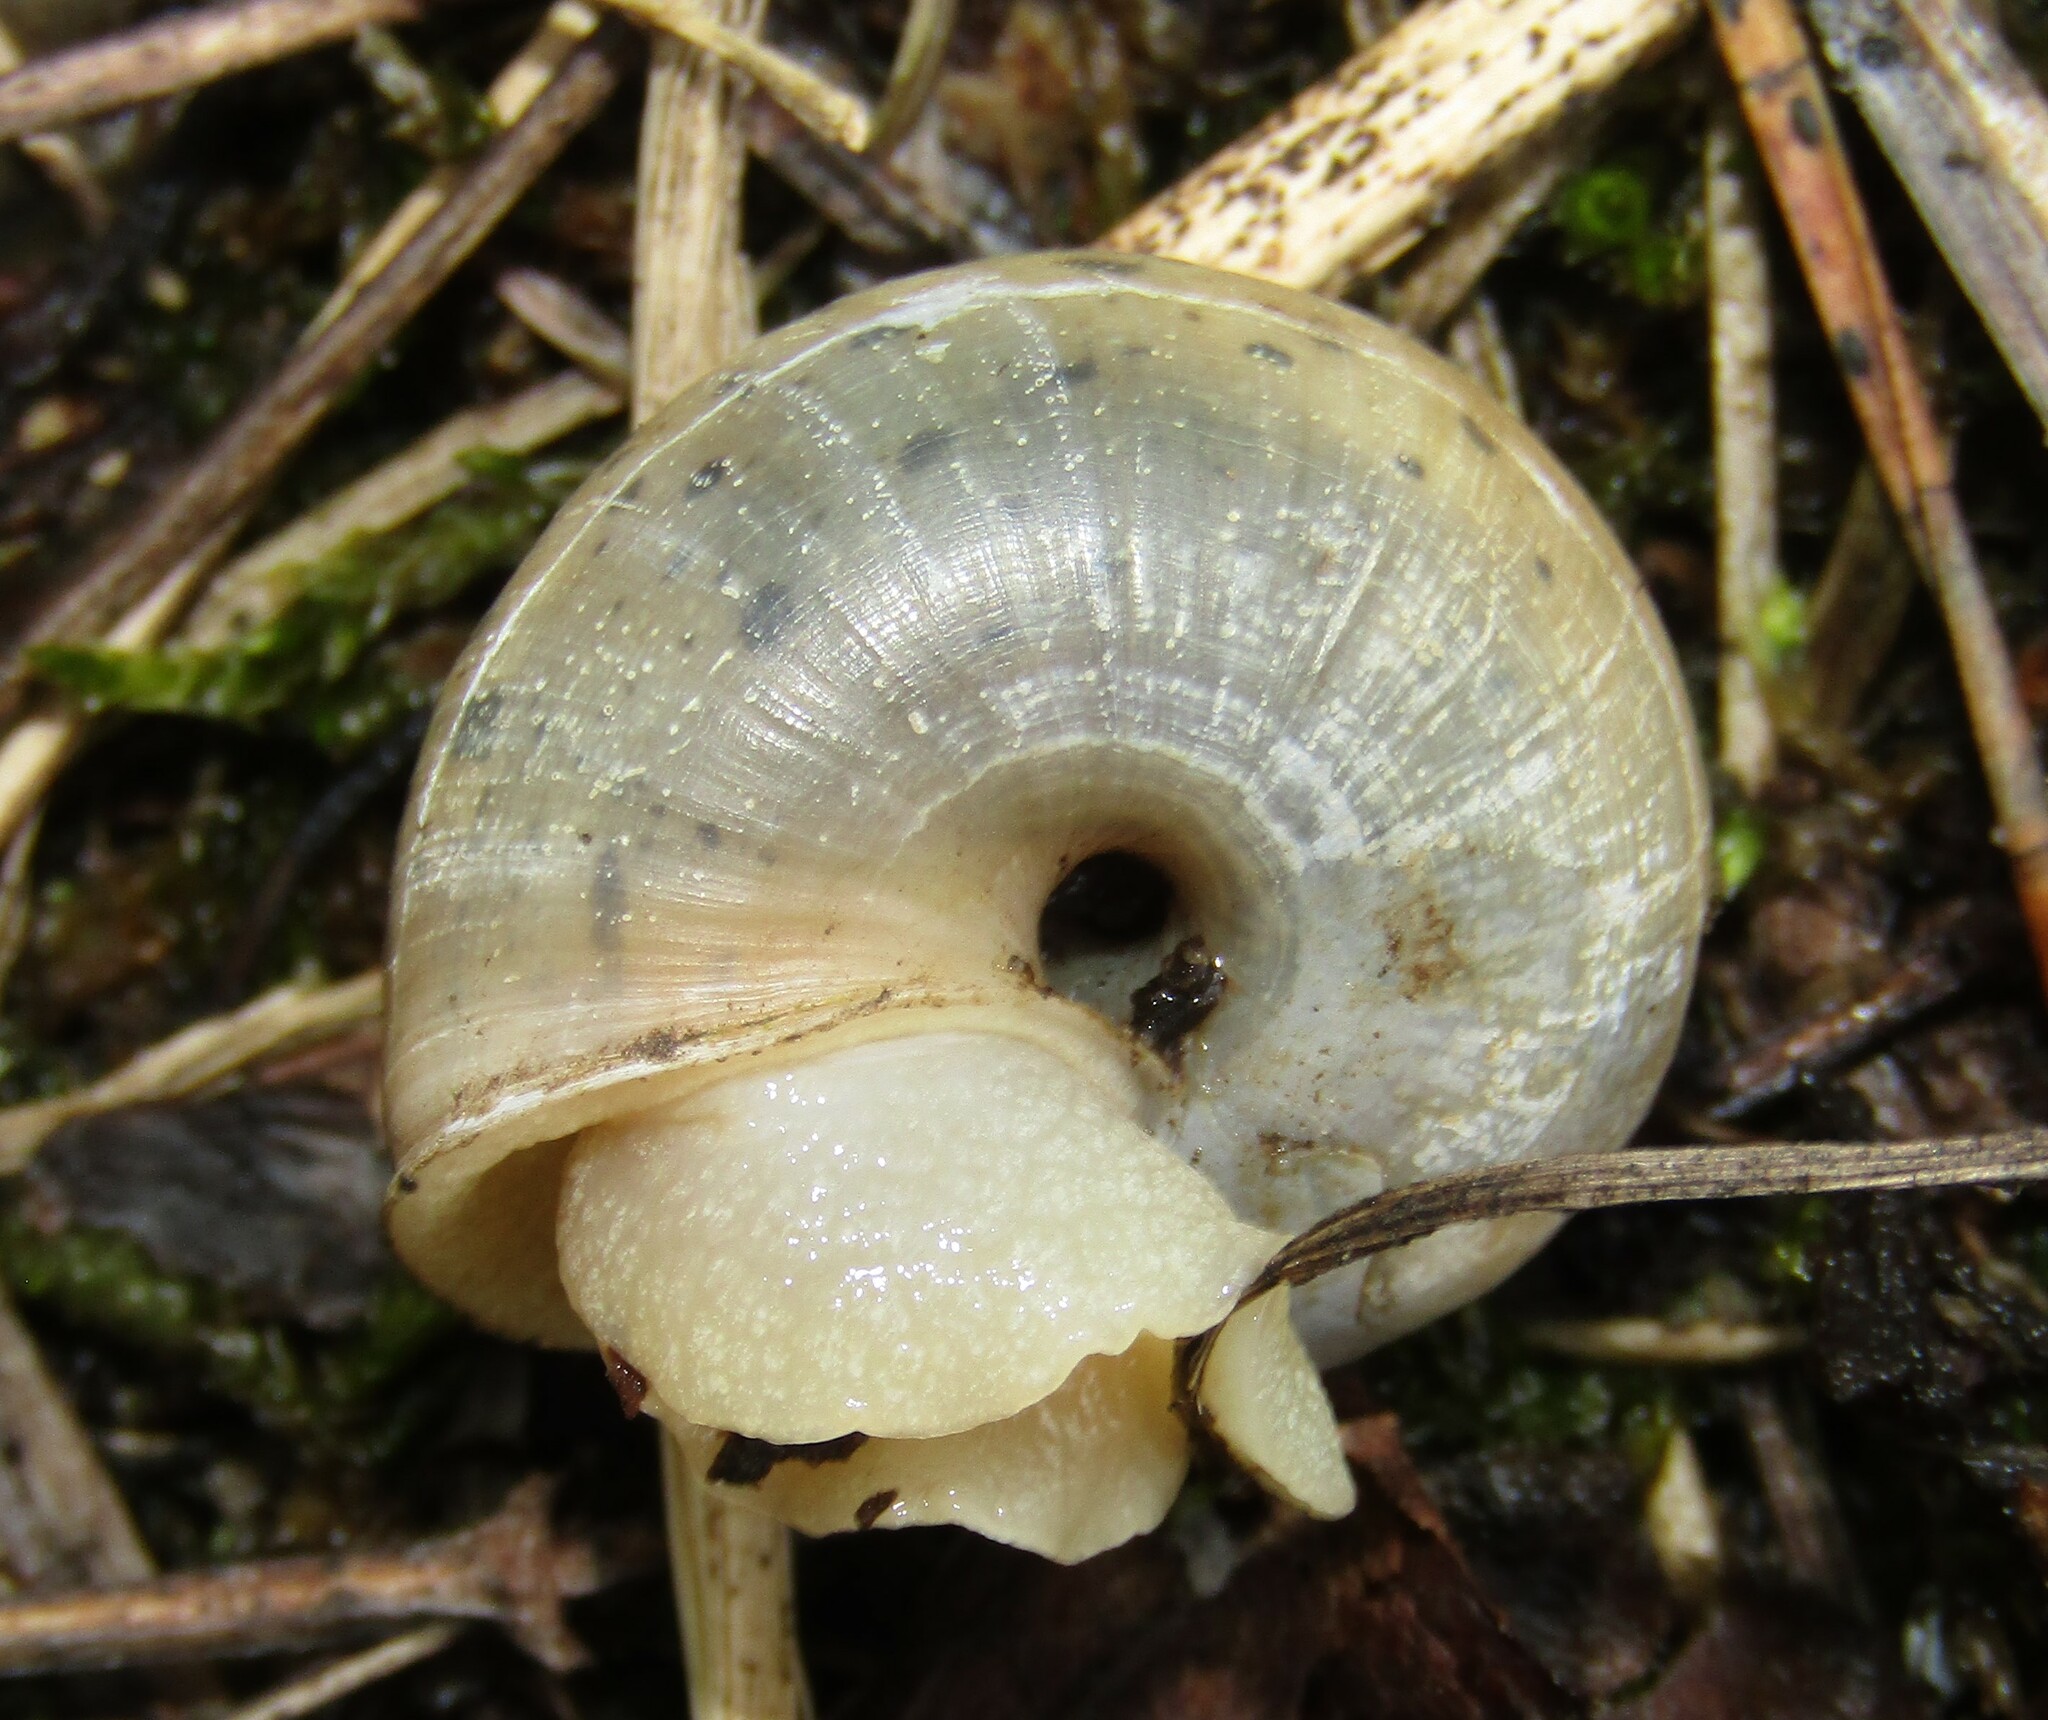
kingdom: Animalia
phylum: Mollusca
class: Gastropoda
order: Stylommatophora
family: Camaenidae
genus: Fruticicola
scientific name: Fruticicola fruticum
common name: Bush snail
